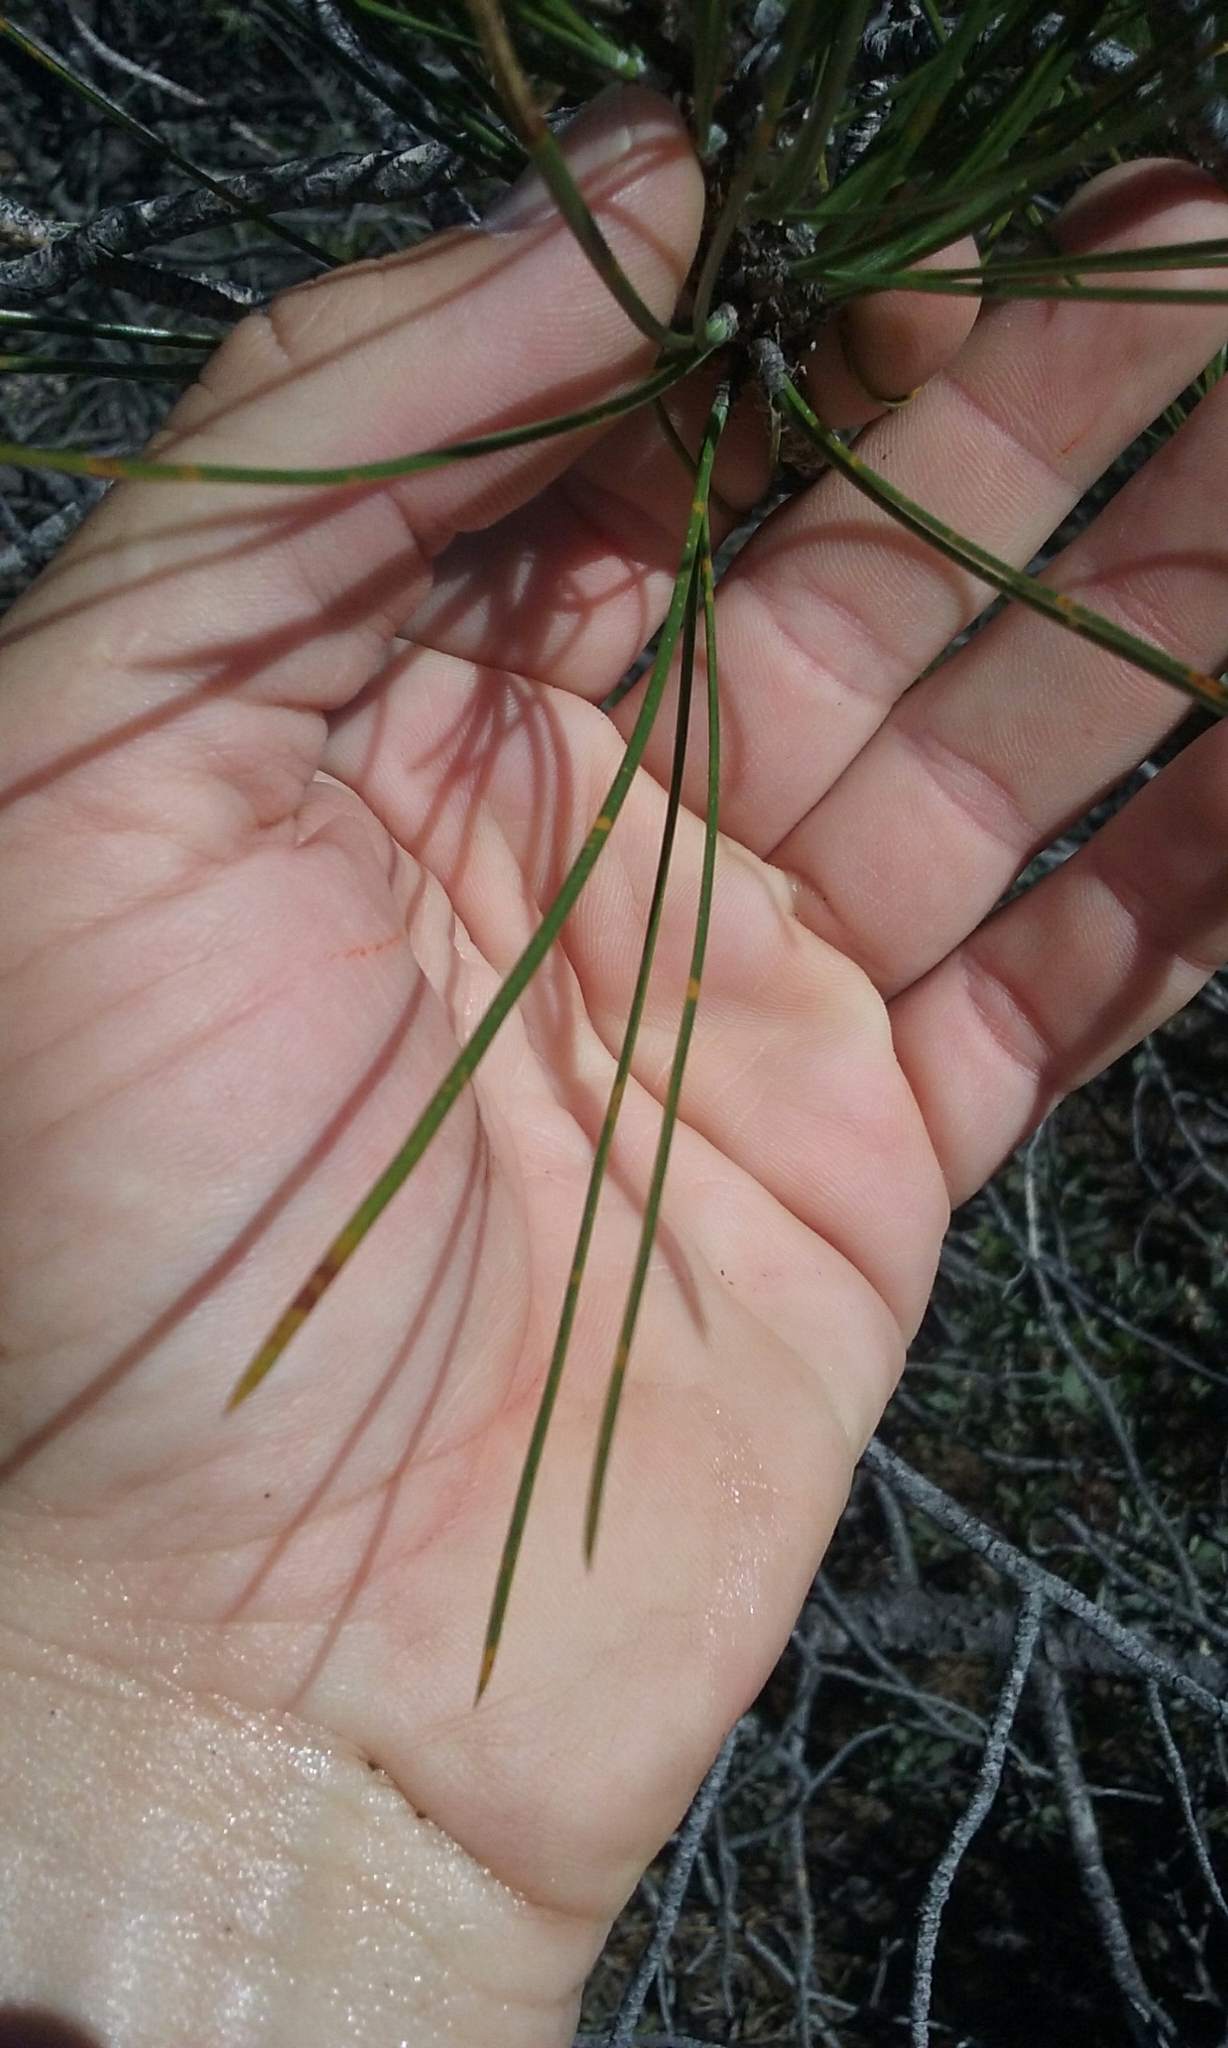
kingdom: Plantae
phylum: Tracheophyta
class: Pinopsida
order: Pinales
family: Pinaceae
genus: Pinus
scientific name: Pinus attenuata
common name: Knobcone pine
